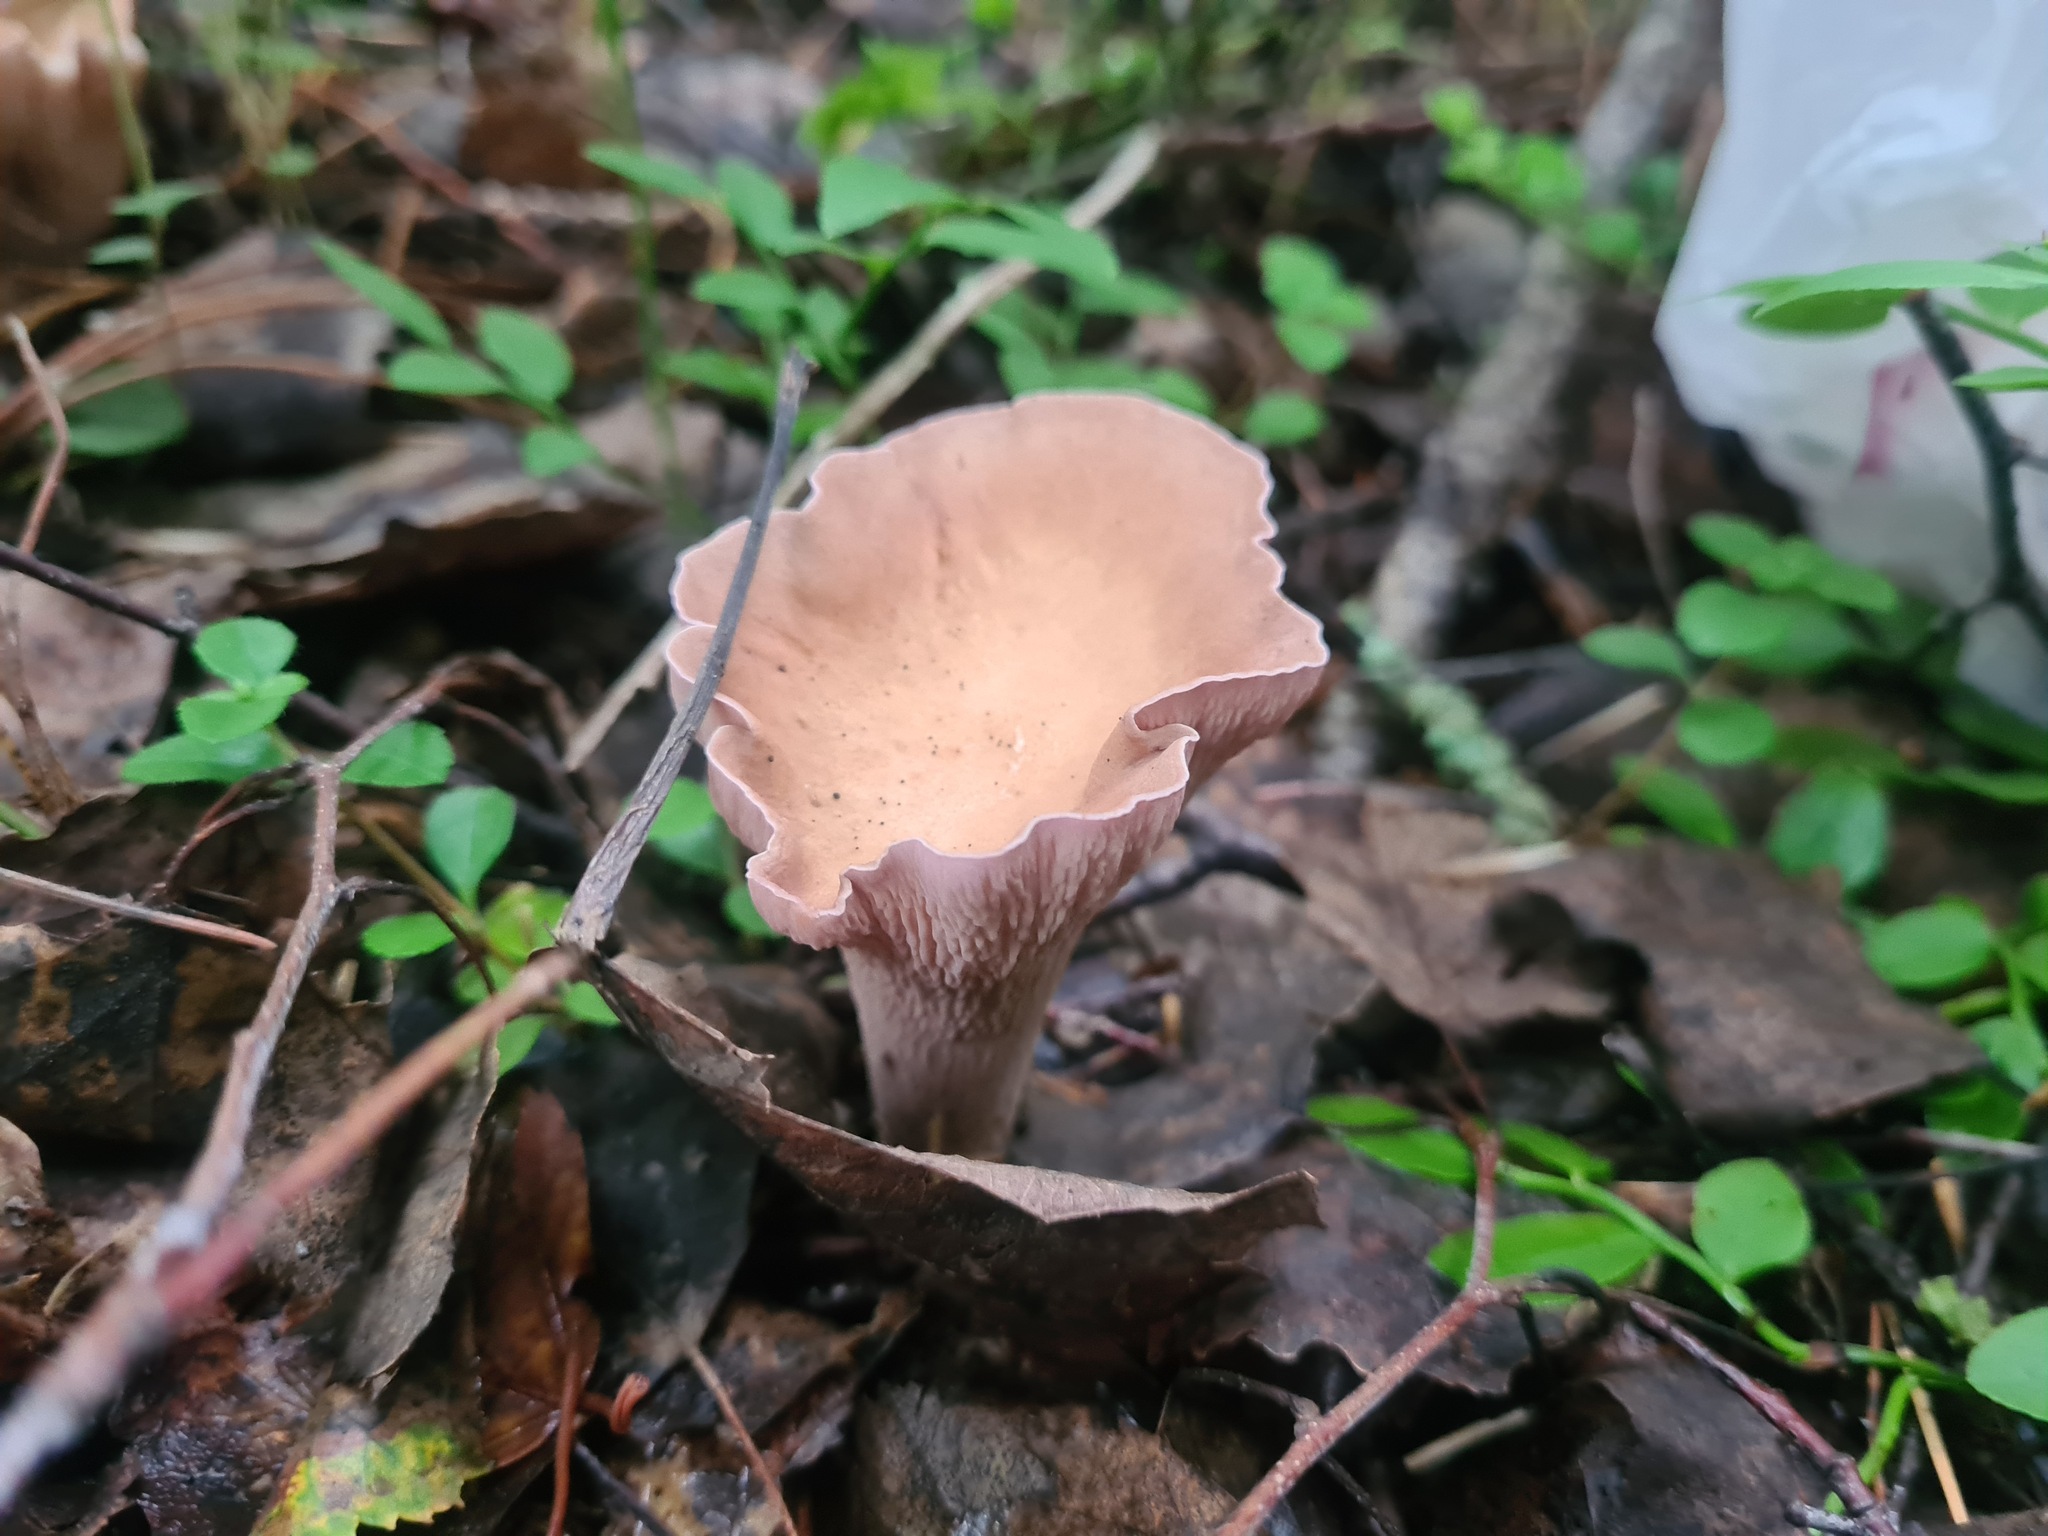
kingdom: Fungi
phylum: Basidiomycota
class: Agaricomycetes
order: Gomphales
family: Gomphaceae
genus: Gomphus
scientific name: Gomphus clavatus
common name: Pig's ear
